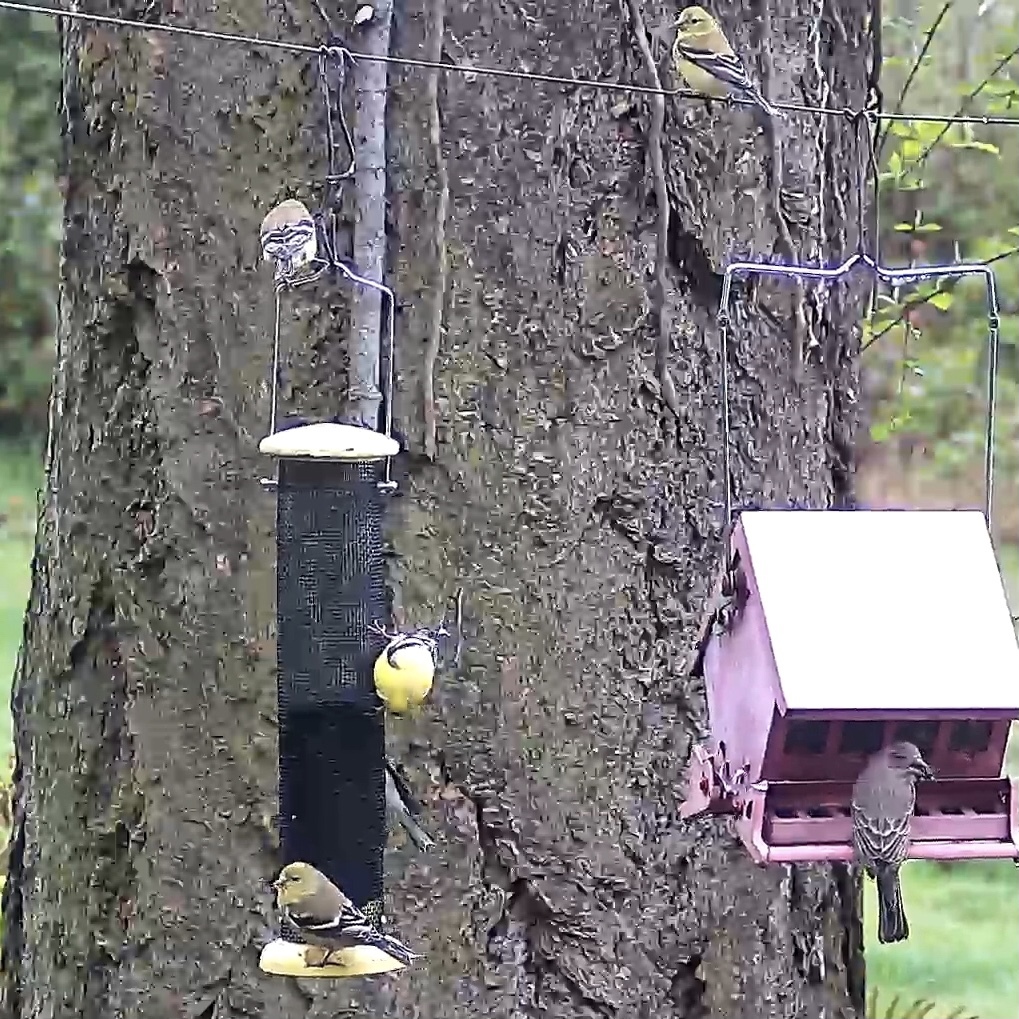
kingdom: Animalia
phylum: Chordata
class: Aves
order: Passeriformes
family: Fringillidae
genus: Spinus
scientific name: Spinus tristis
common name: American goldfinch
